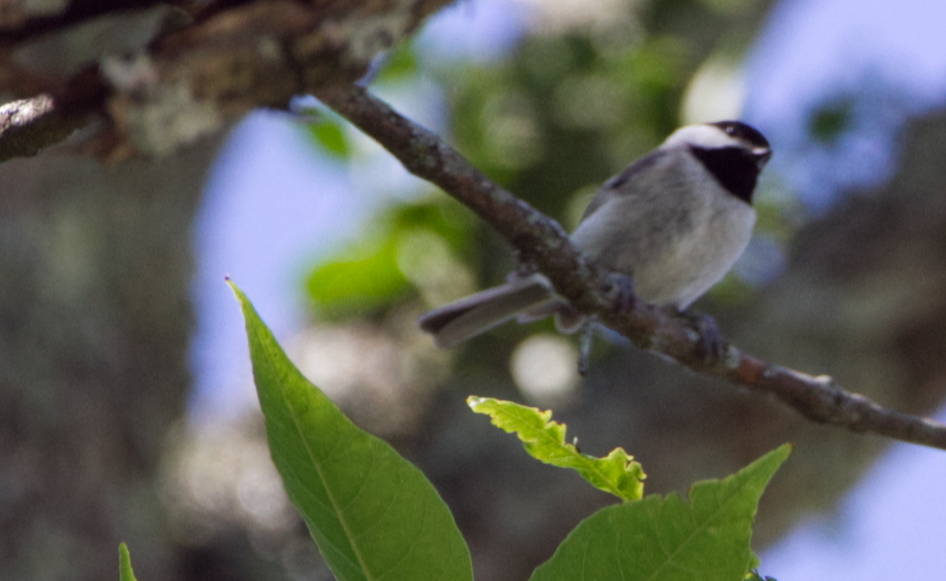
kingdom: Animalia
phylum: Chordata
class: Aves
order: Passeriformes
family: Paridae
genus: Poecile
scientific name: Poecile carolinensis
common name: Carolina chickadee
